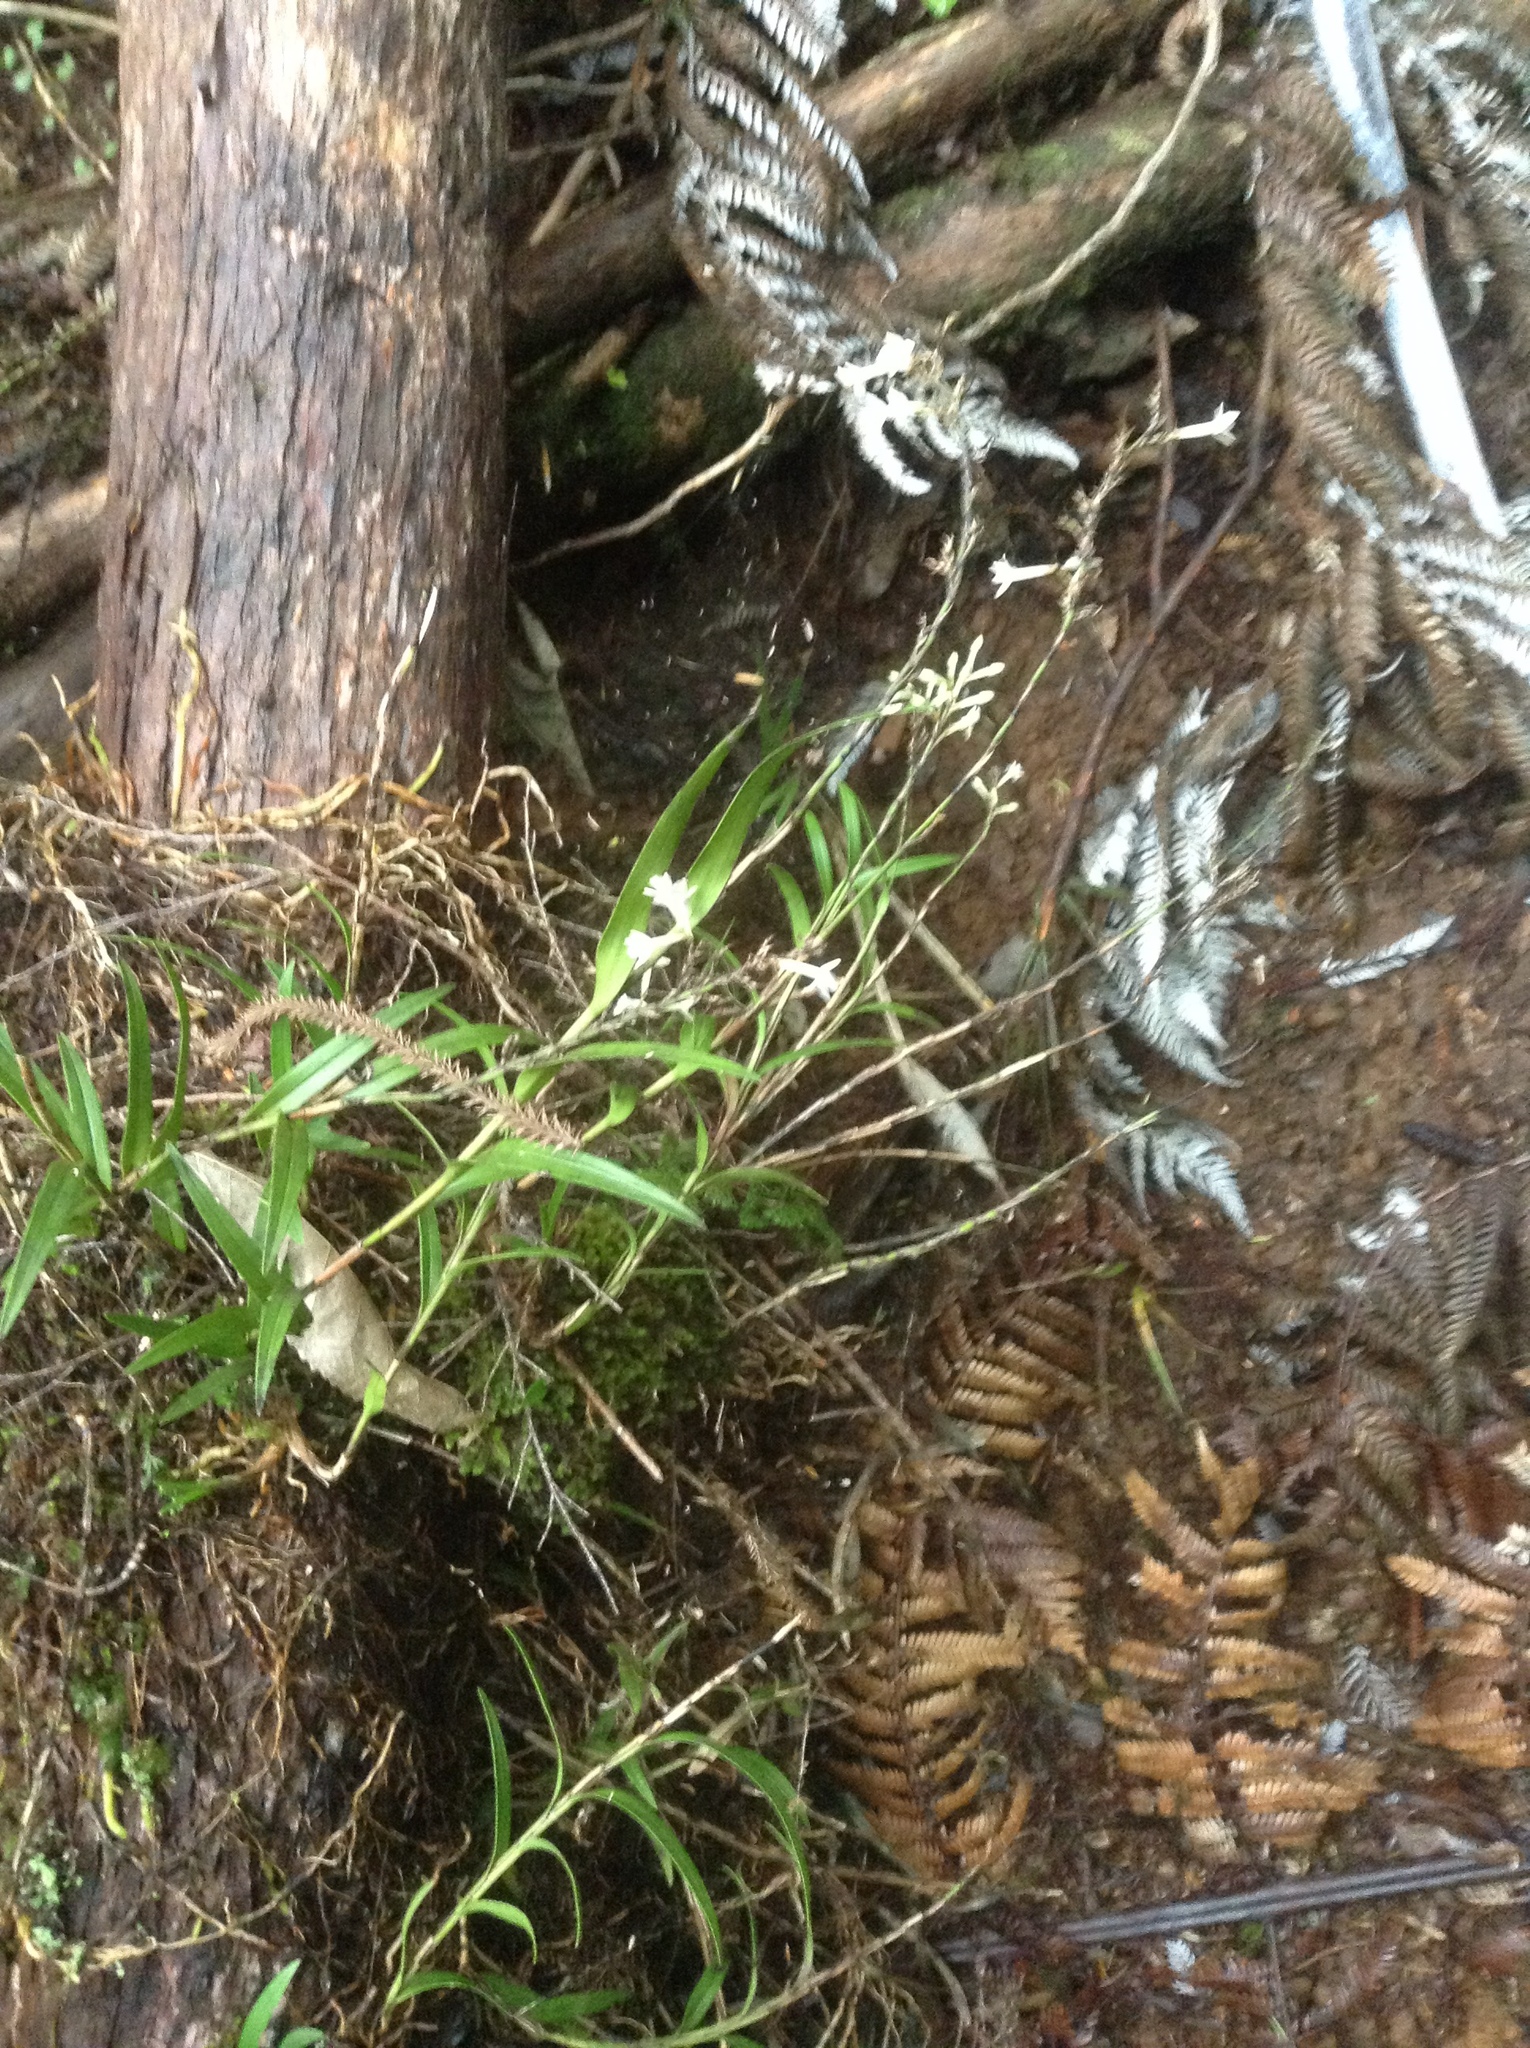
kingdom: Plantae
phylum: Tracheophyta
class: Liliopsida
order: Asparagales
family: Orchidaceae
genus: Earina
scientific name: Earina autumnalis
